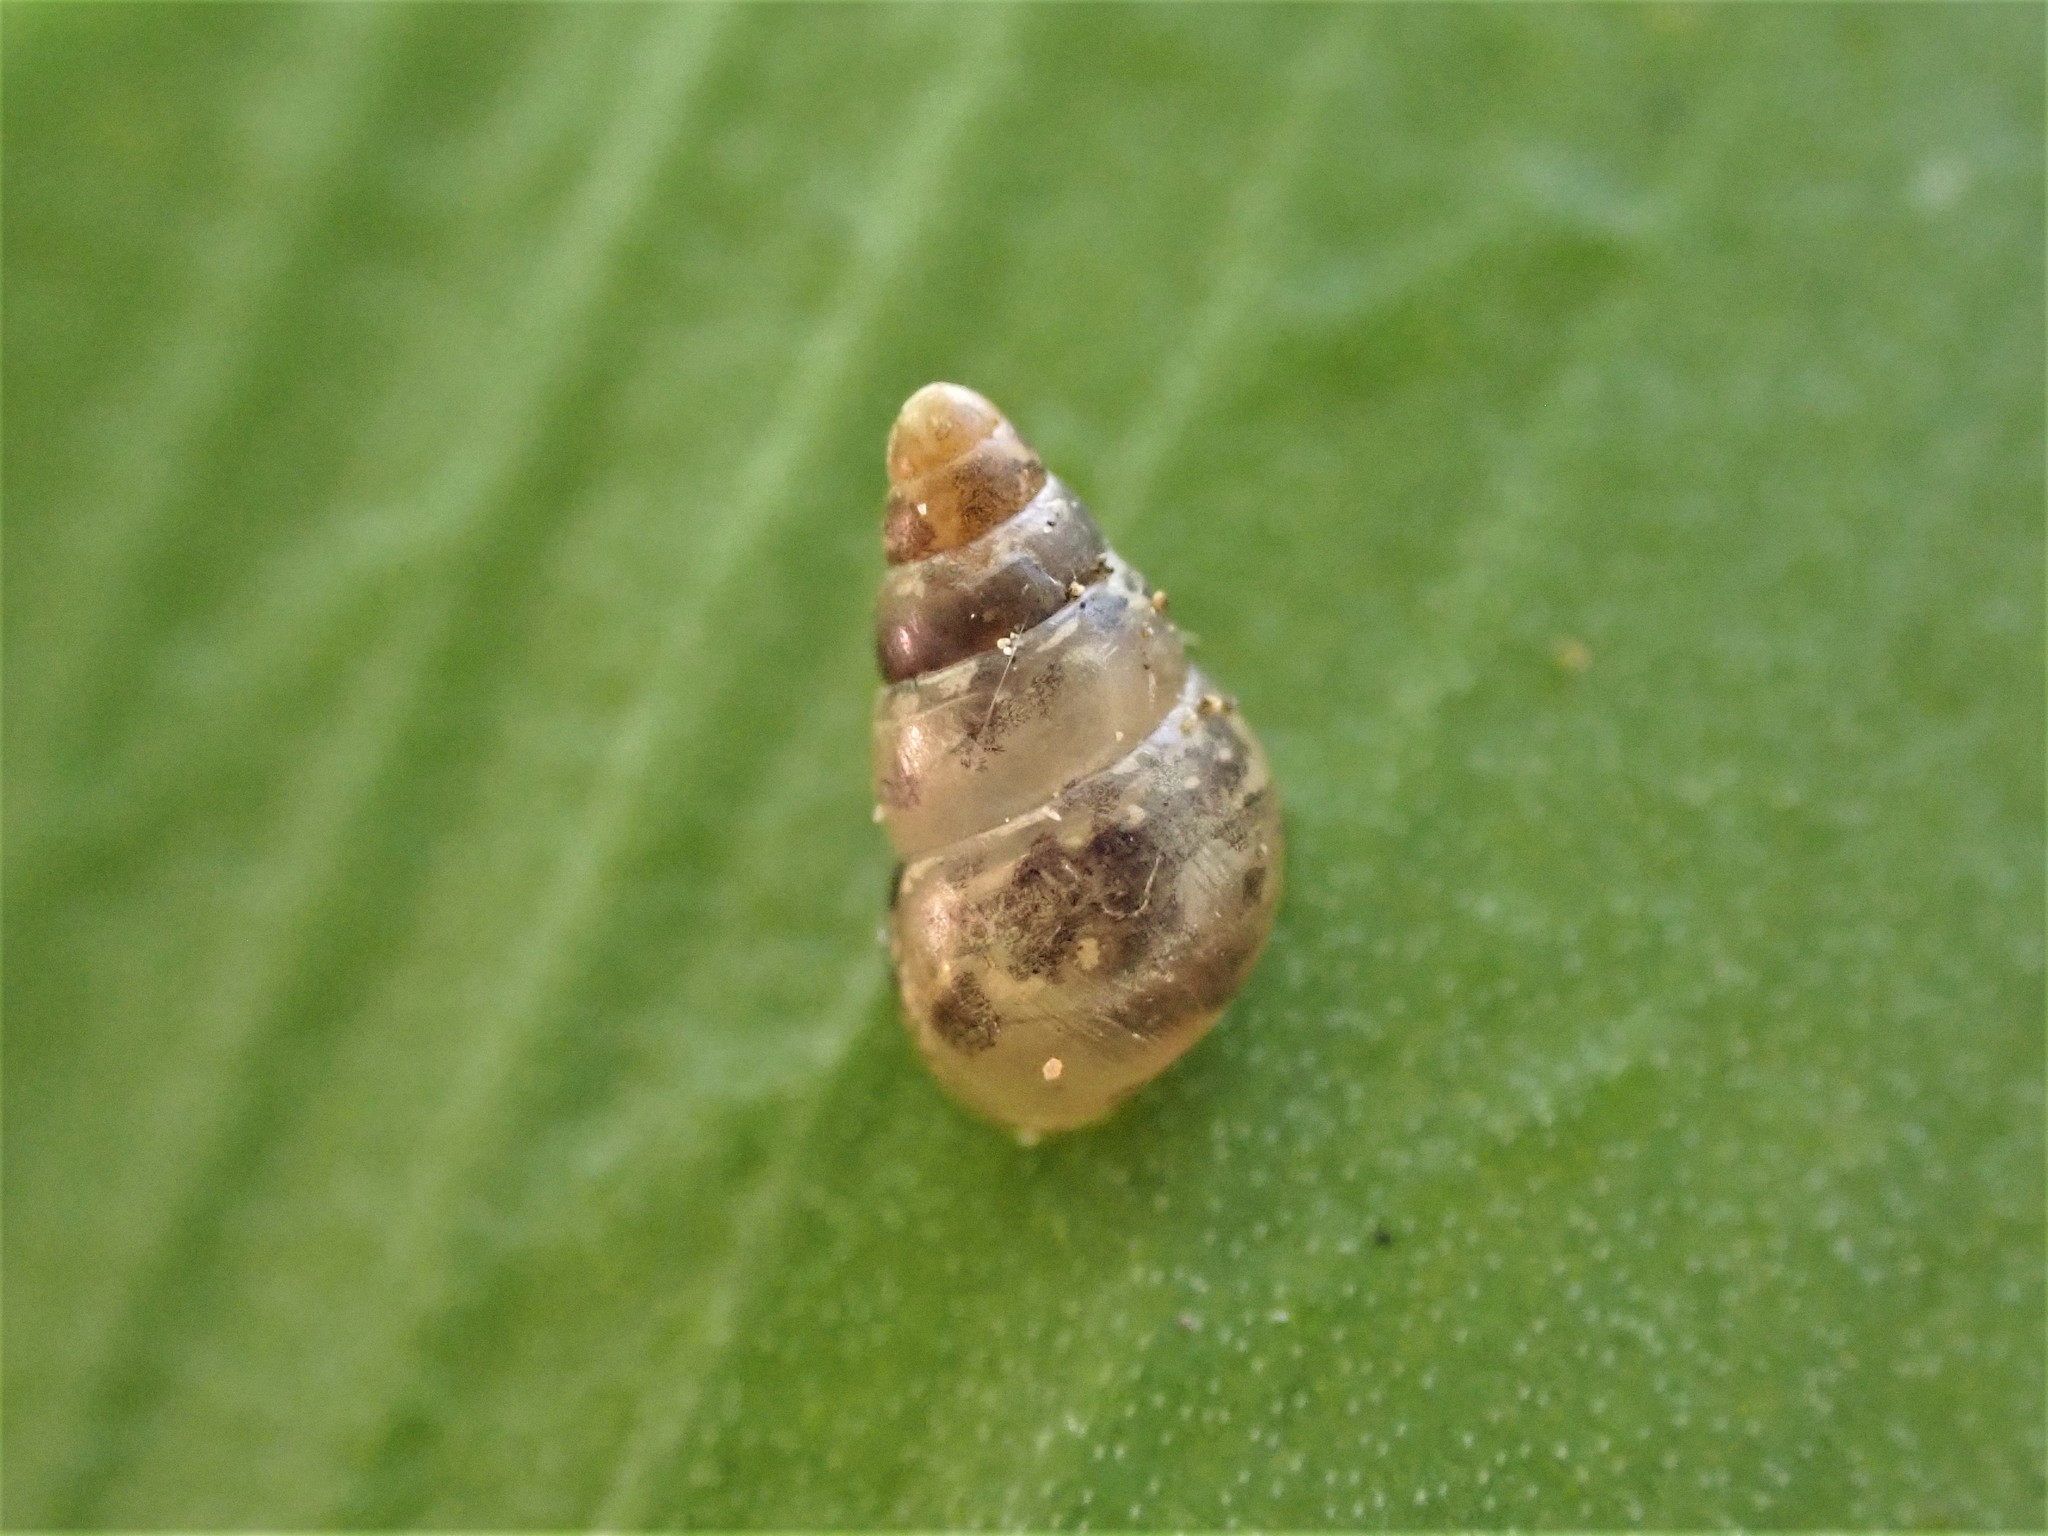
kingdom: Animalia
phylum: Mollusca
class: Gastropoda
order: Stylommatophora
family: Achatinellidae
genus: Tornatellides
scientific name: Tornatellides subperforatus
